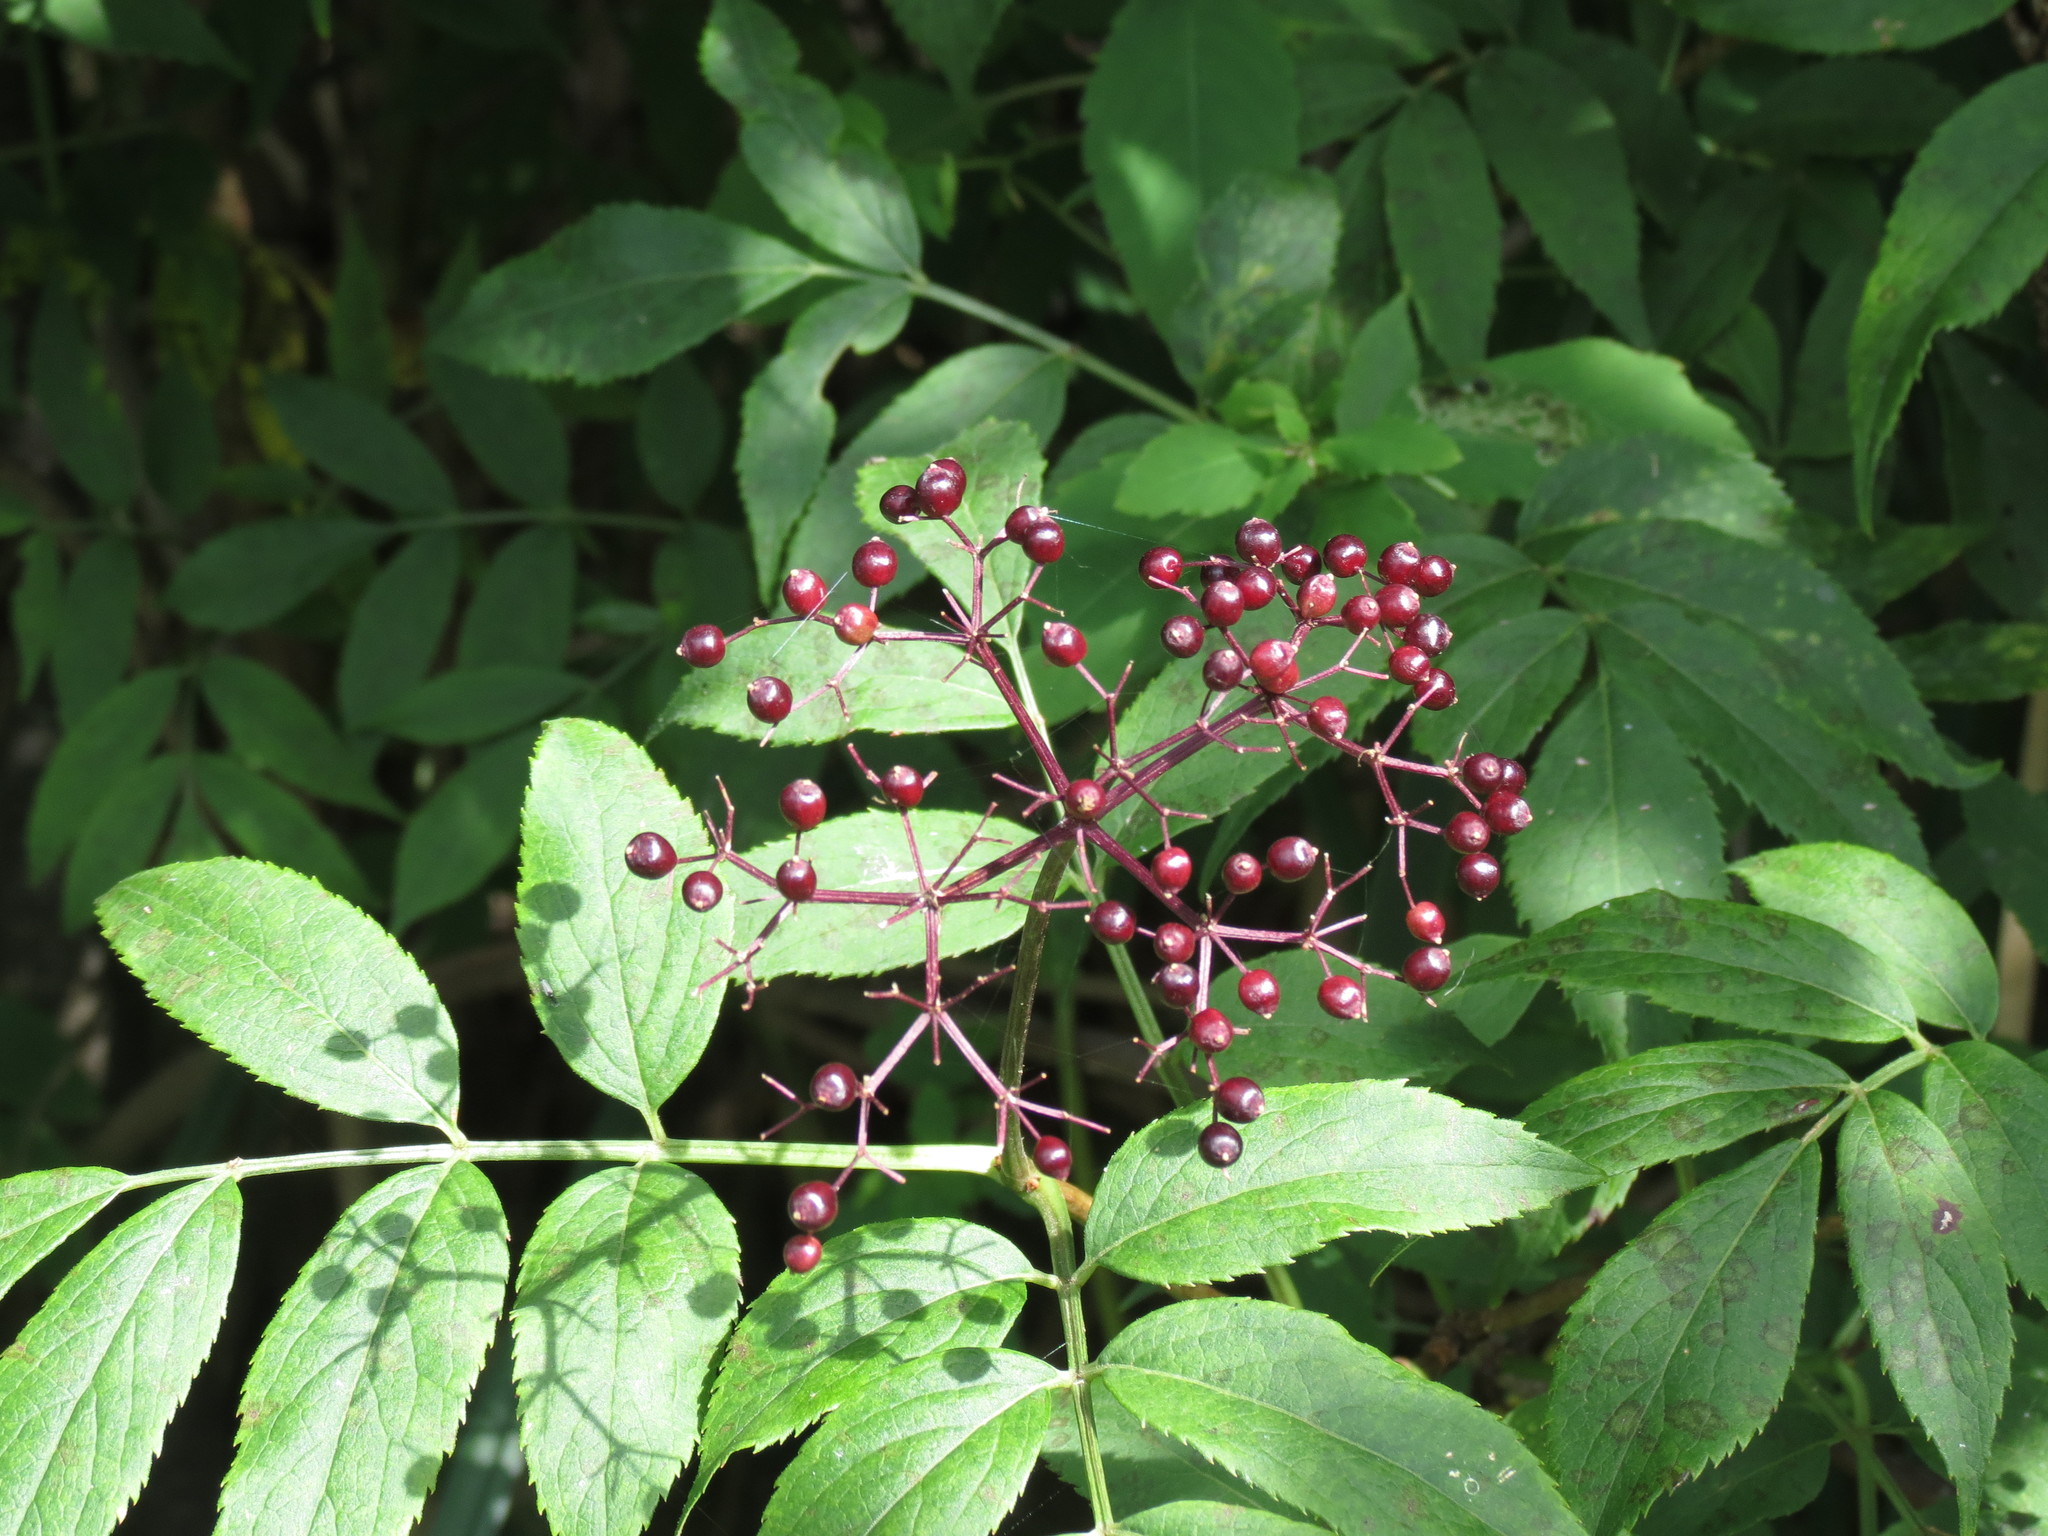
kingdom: Plantae
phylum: Tracheophyta
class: Magnoliopsida
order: Dipsacales
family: Viburnaceae
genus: Sambucus
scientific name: Sambucus canadensis
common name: American elder
